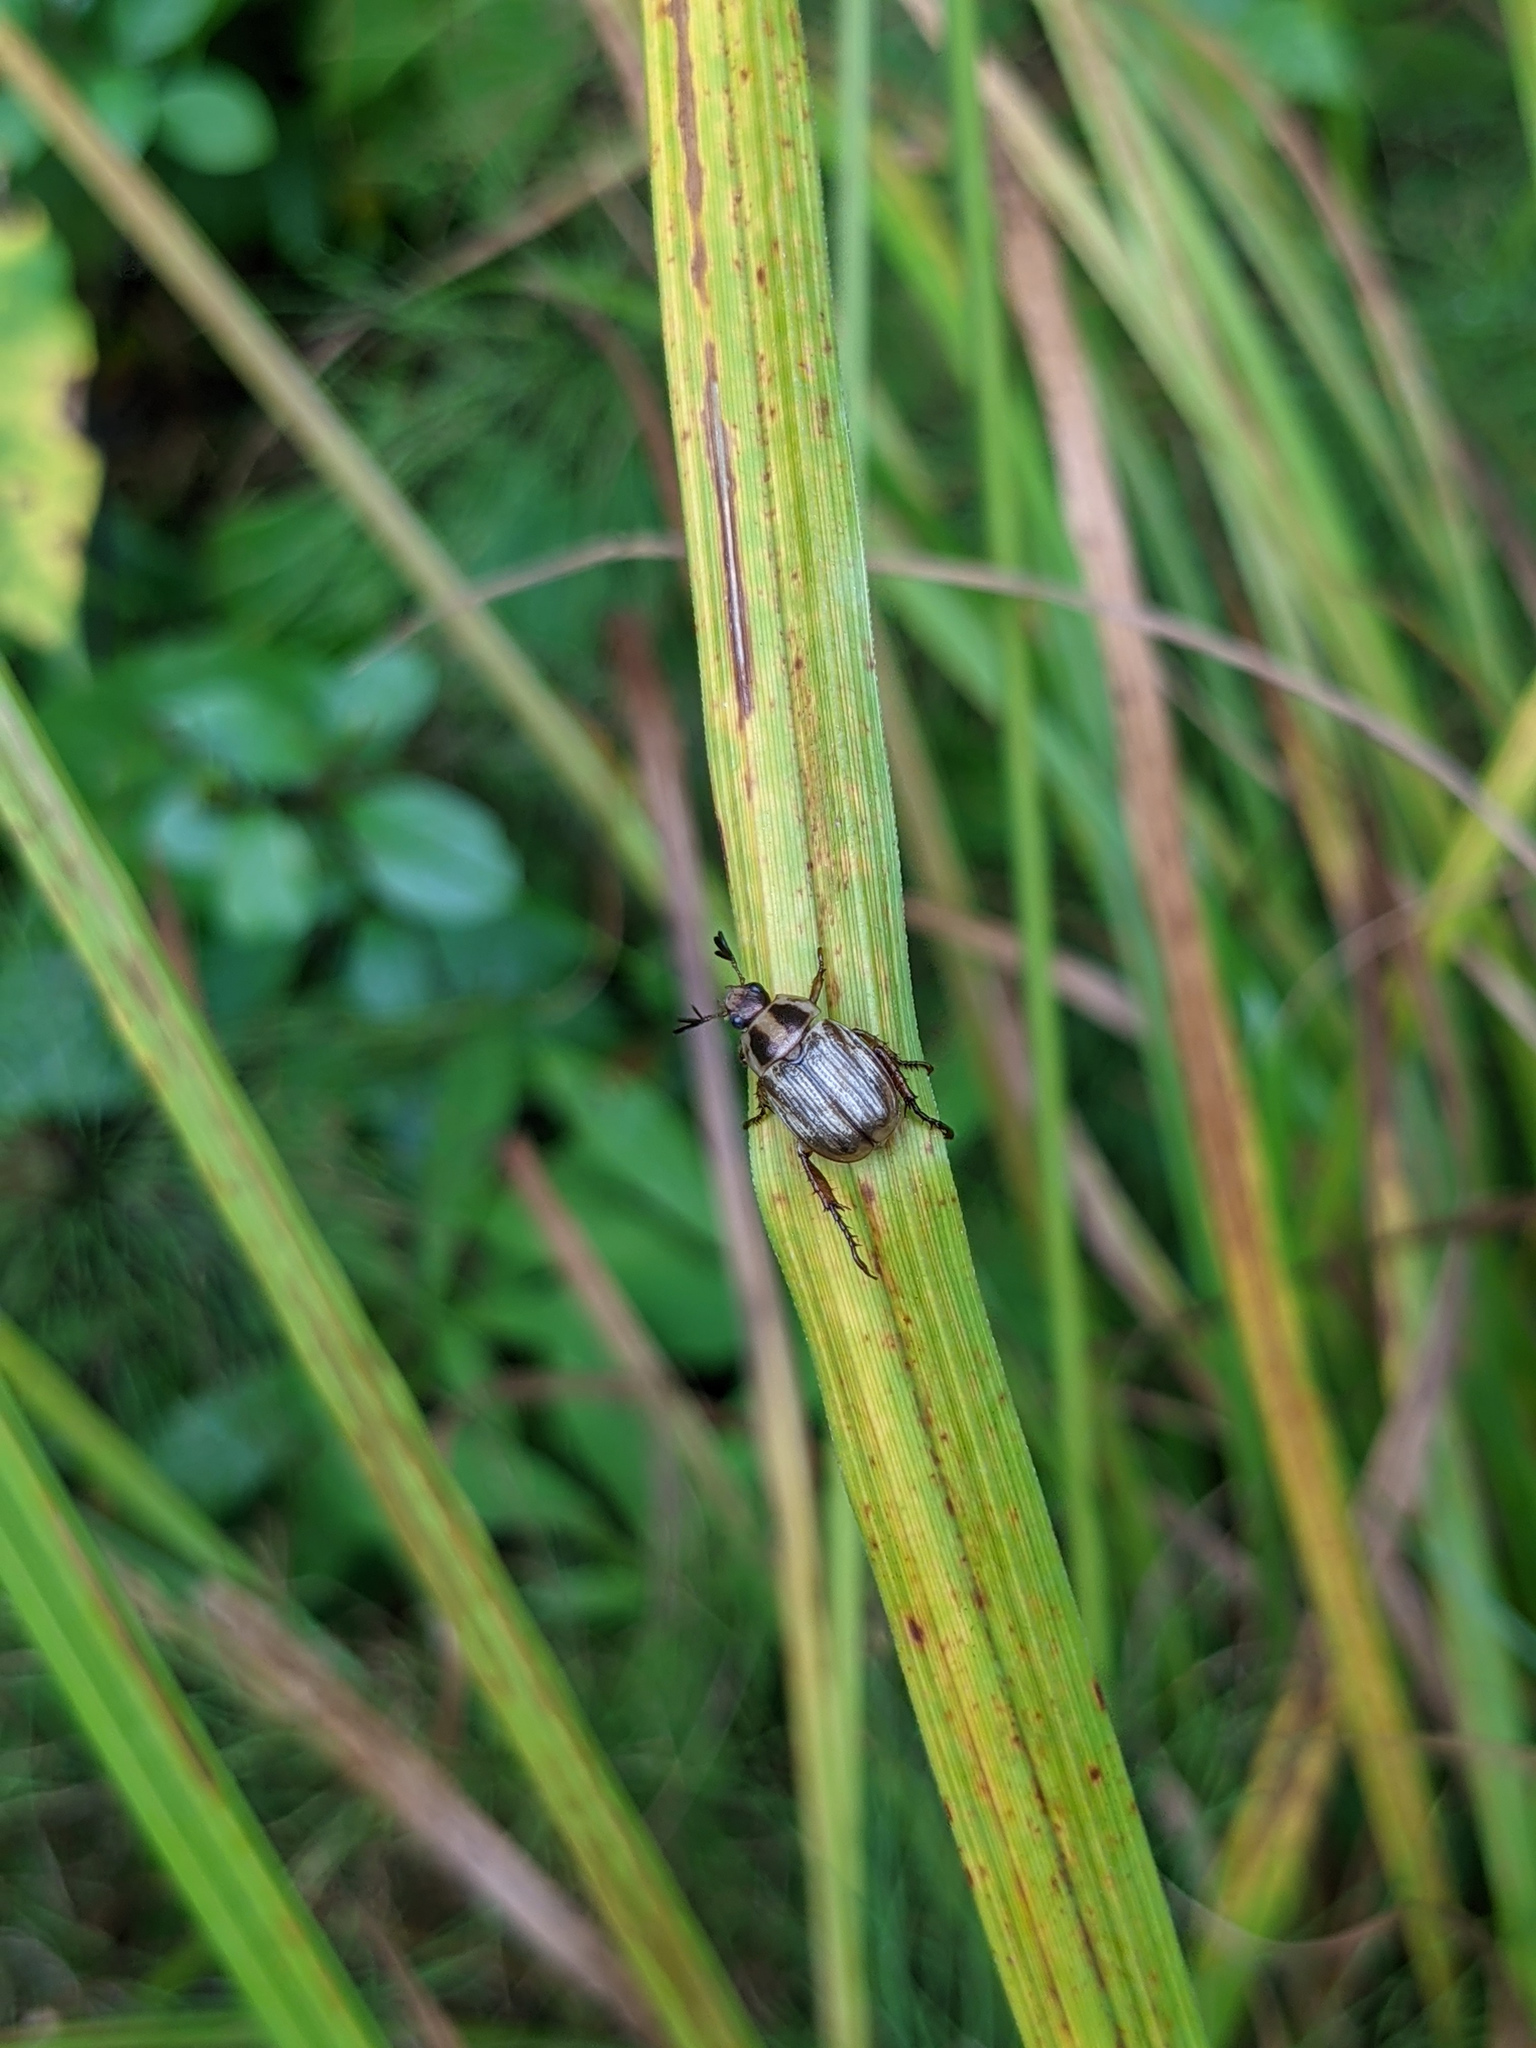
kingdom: Animalia
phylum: Arthropoda
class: Insecta
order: Coleoptera
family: Scarabaeidae
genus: Exomala
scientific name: Exomala orientalis
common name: Oriental beetle
